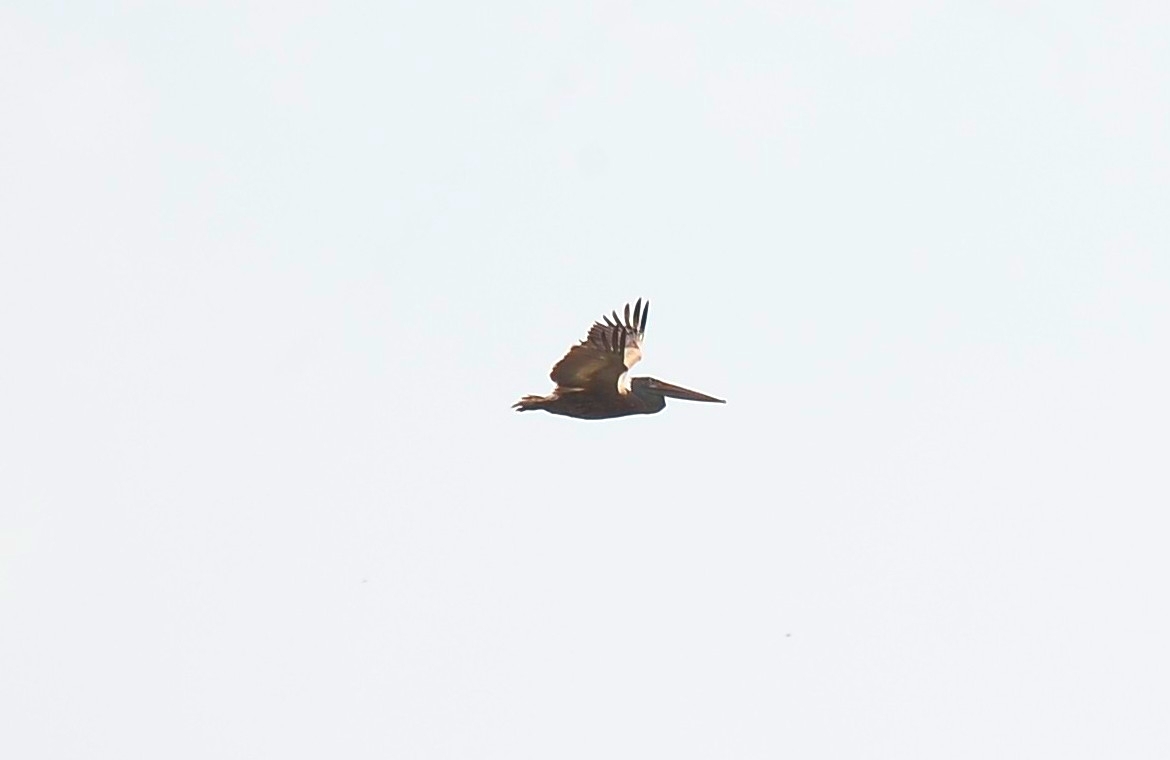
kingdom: Animalia
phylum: Chordata
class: Aves
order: Pelecaniformes
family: Pelecanidae
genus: Pelecanus
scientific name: Pelecanus philippensis
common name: Spot-billed pelican
